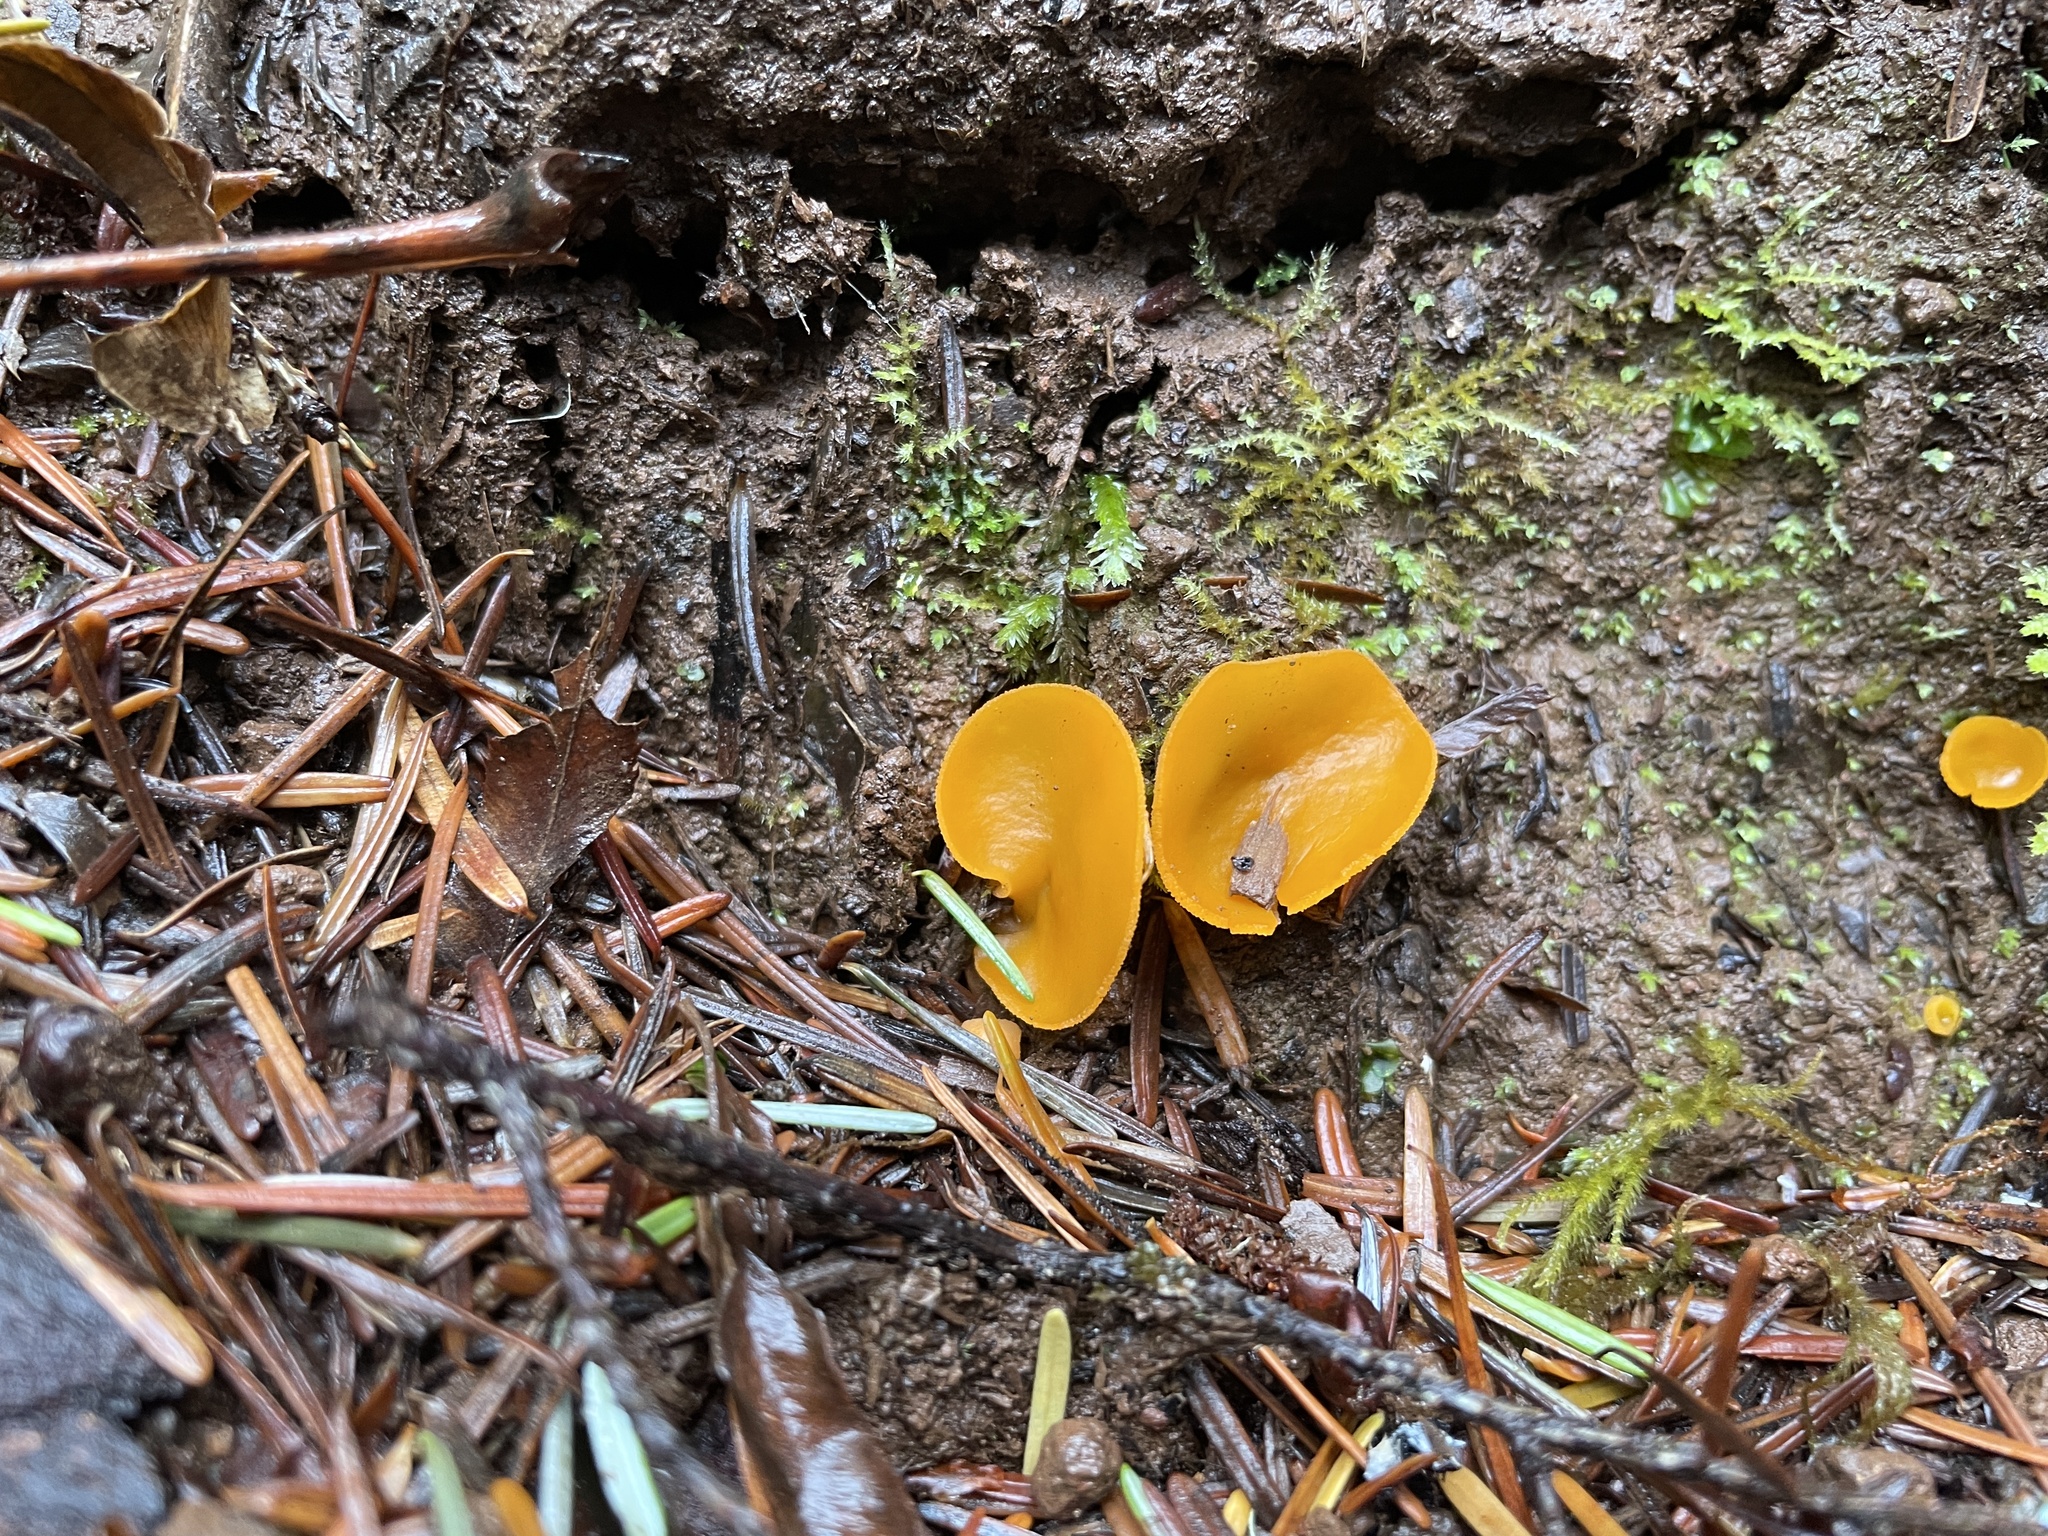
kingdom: Fungi
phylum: Ascomycota
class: Pezizomycetes
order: Pezizales
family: Pyronemataceae
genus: Aleuria
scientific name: Aleuria aurantia
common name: Orange peel fungus
